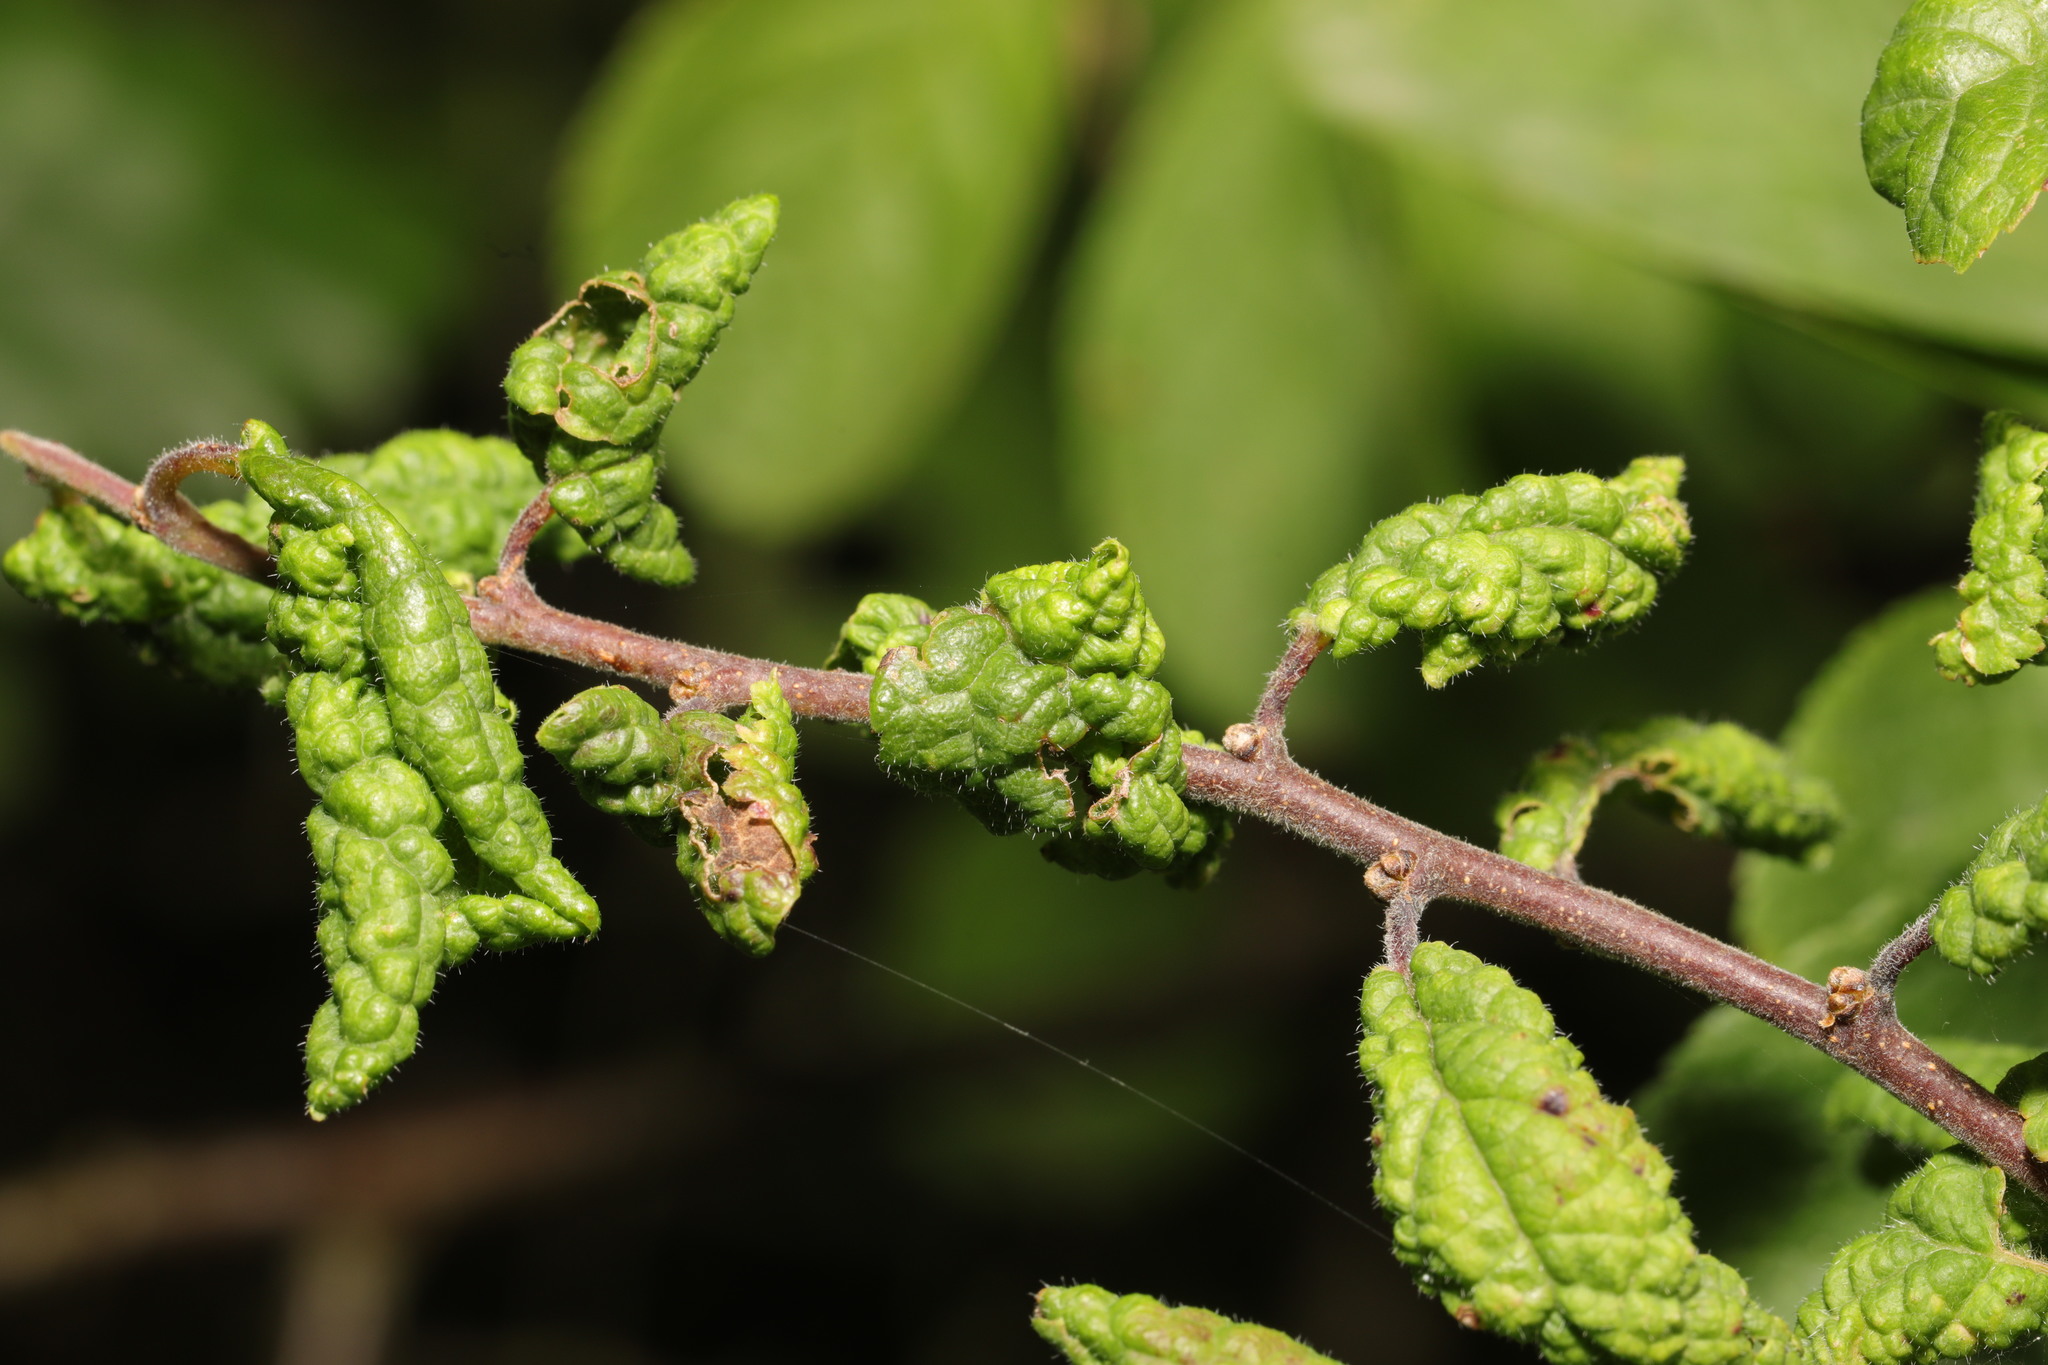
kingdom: Animalia
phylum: Arthropoda
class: Insecta
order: Hemiptera
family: Aphididae
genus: Hyalopterus
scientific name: Hyalopterus pruni
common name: Mealy plum aphid
